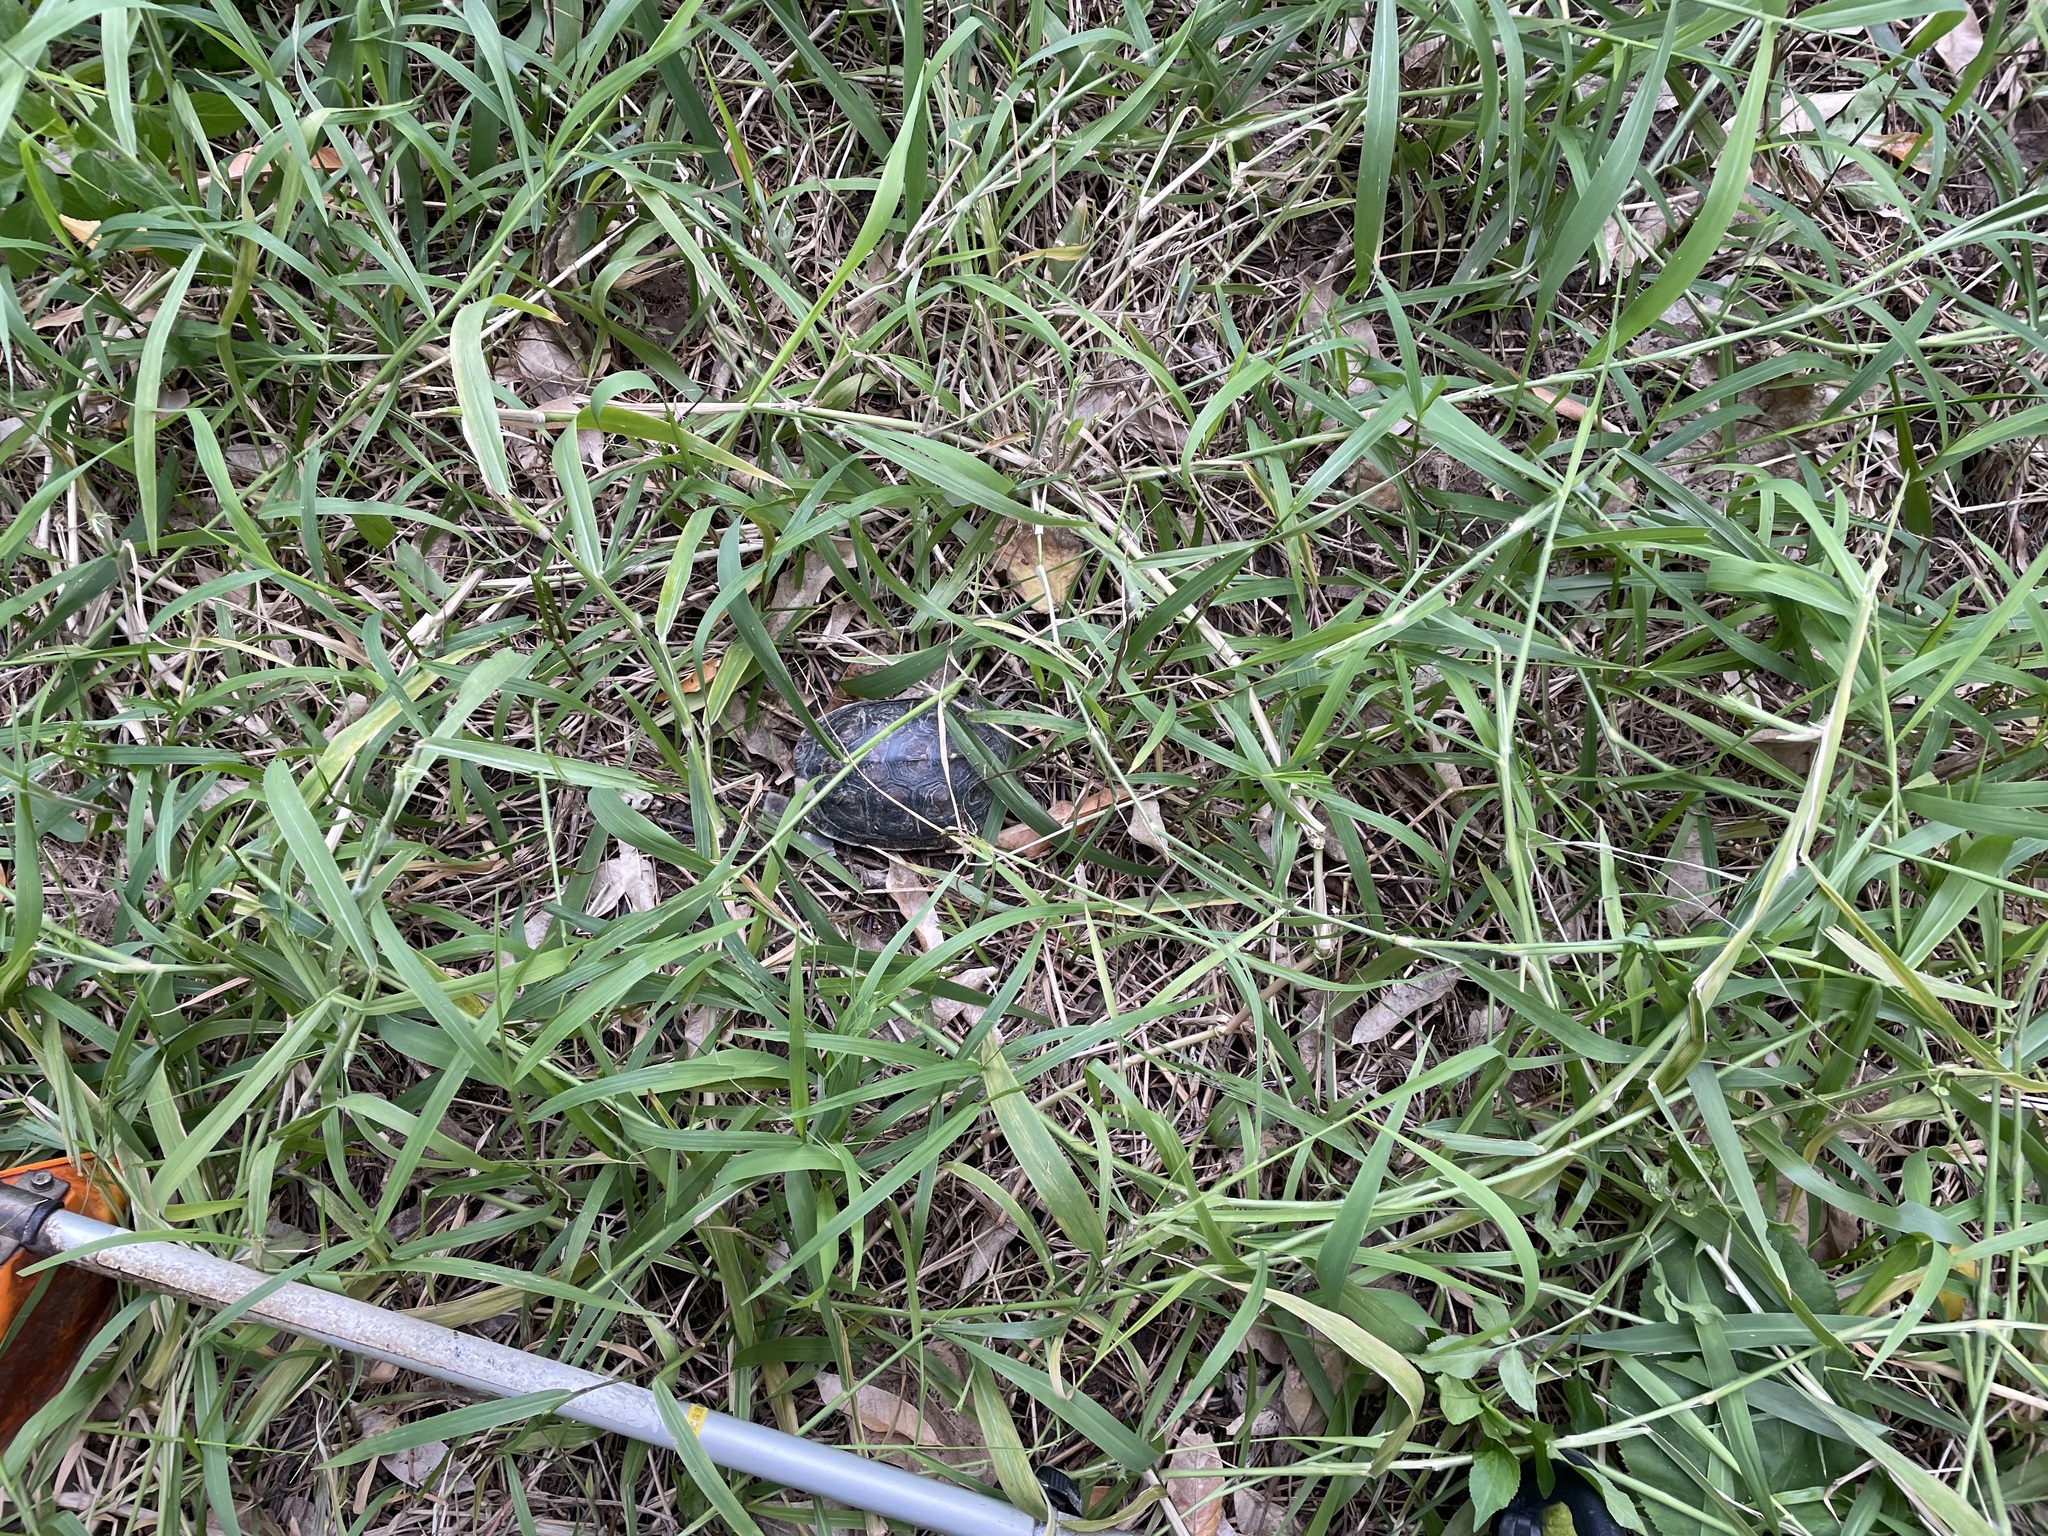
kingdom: Animalia
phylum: Chordata
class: Testudines
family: Geoemydidae
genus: Mauremys
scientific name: Mauremys sinensis
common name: Chinese stripe-necked turtle
